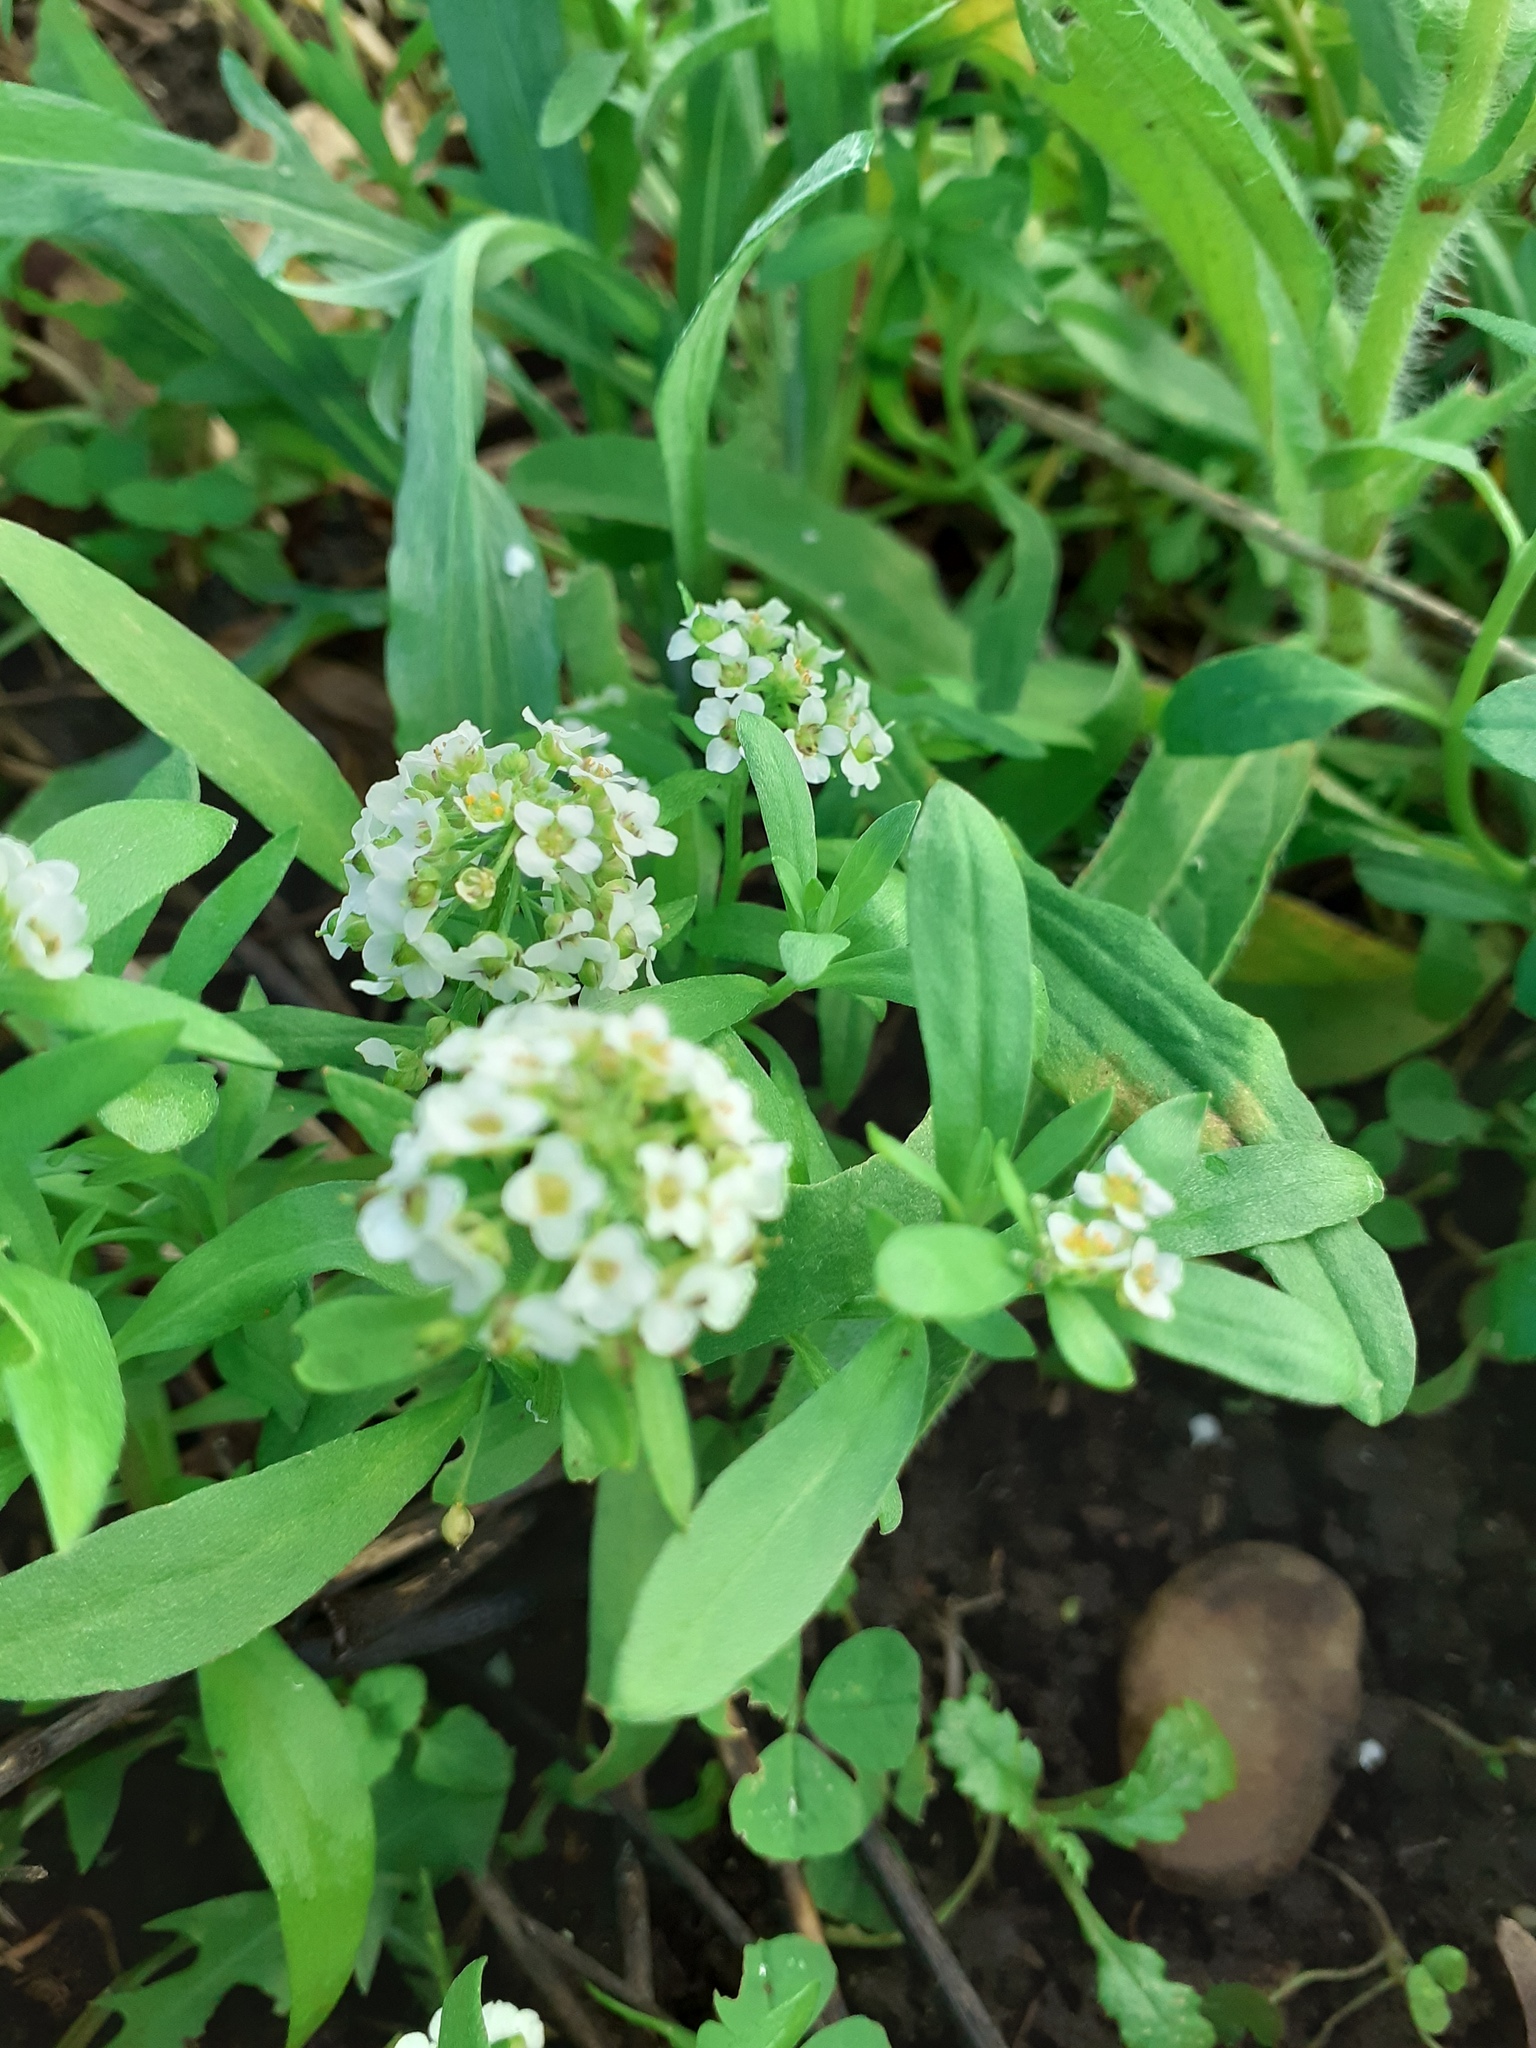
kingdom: Plantae
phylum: Tracheophyta
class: Magnoliopsida
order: Brassicales
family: Brassicaceae
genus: Lobularia
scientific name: Lobularia maritima
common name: Sweet alison
